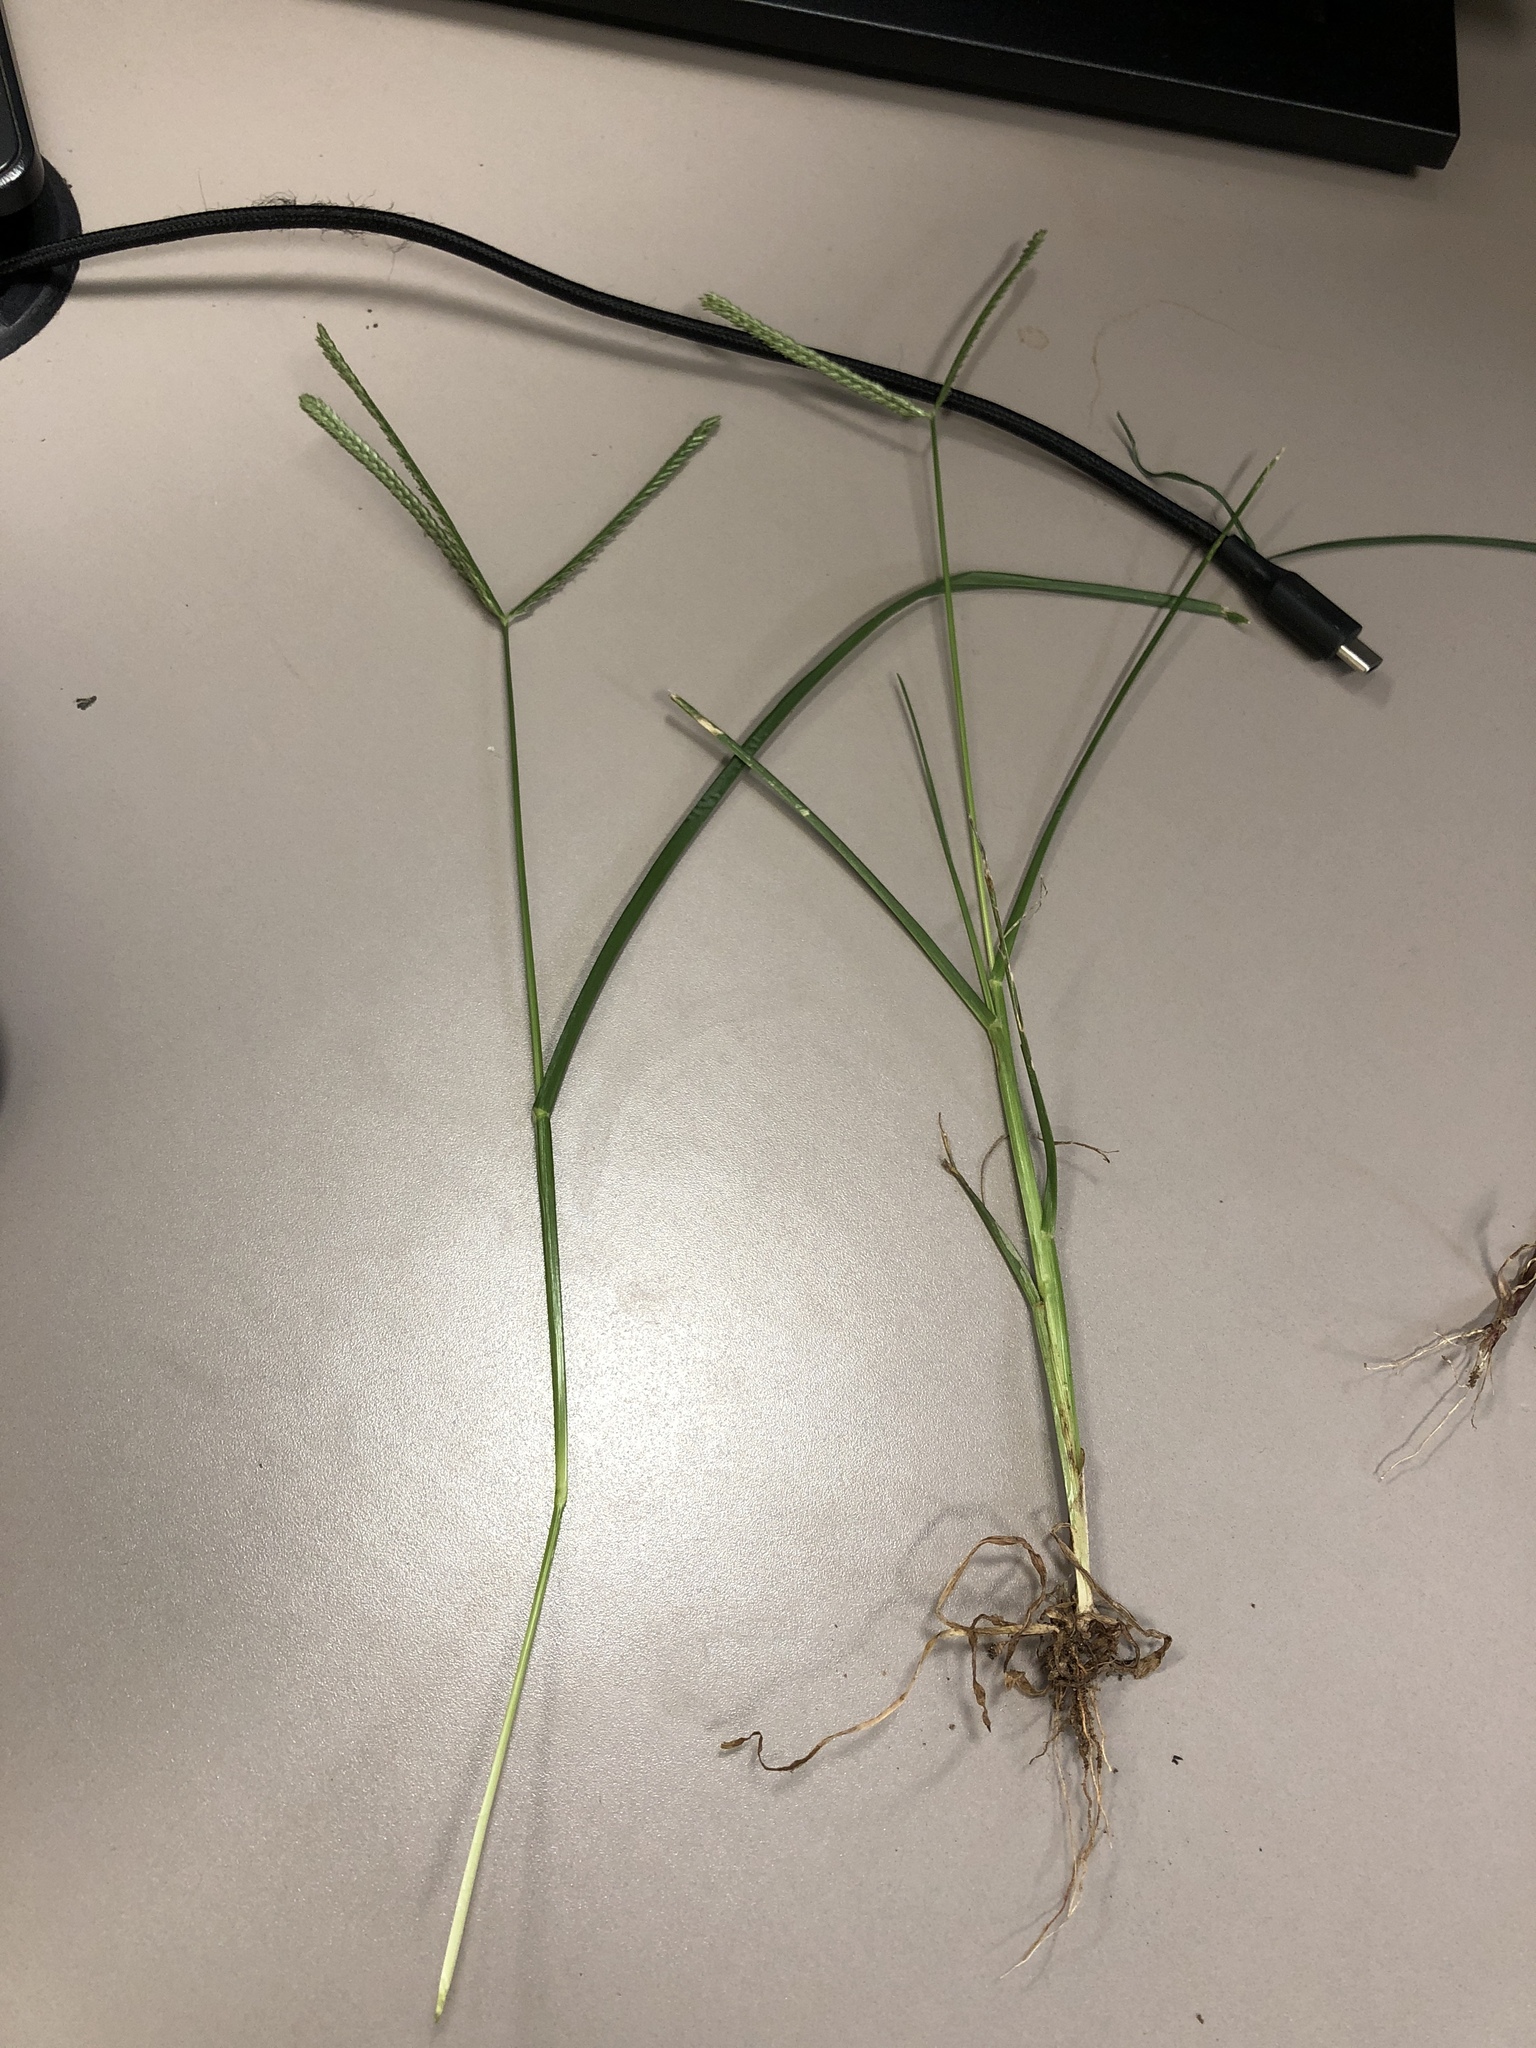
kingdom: Plantae
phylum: Tracheophyta
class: Liliopsida
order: Poales
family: Poaceae
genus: Eleusine
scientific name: Eleusine indica
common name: Yard-grass
